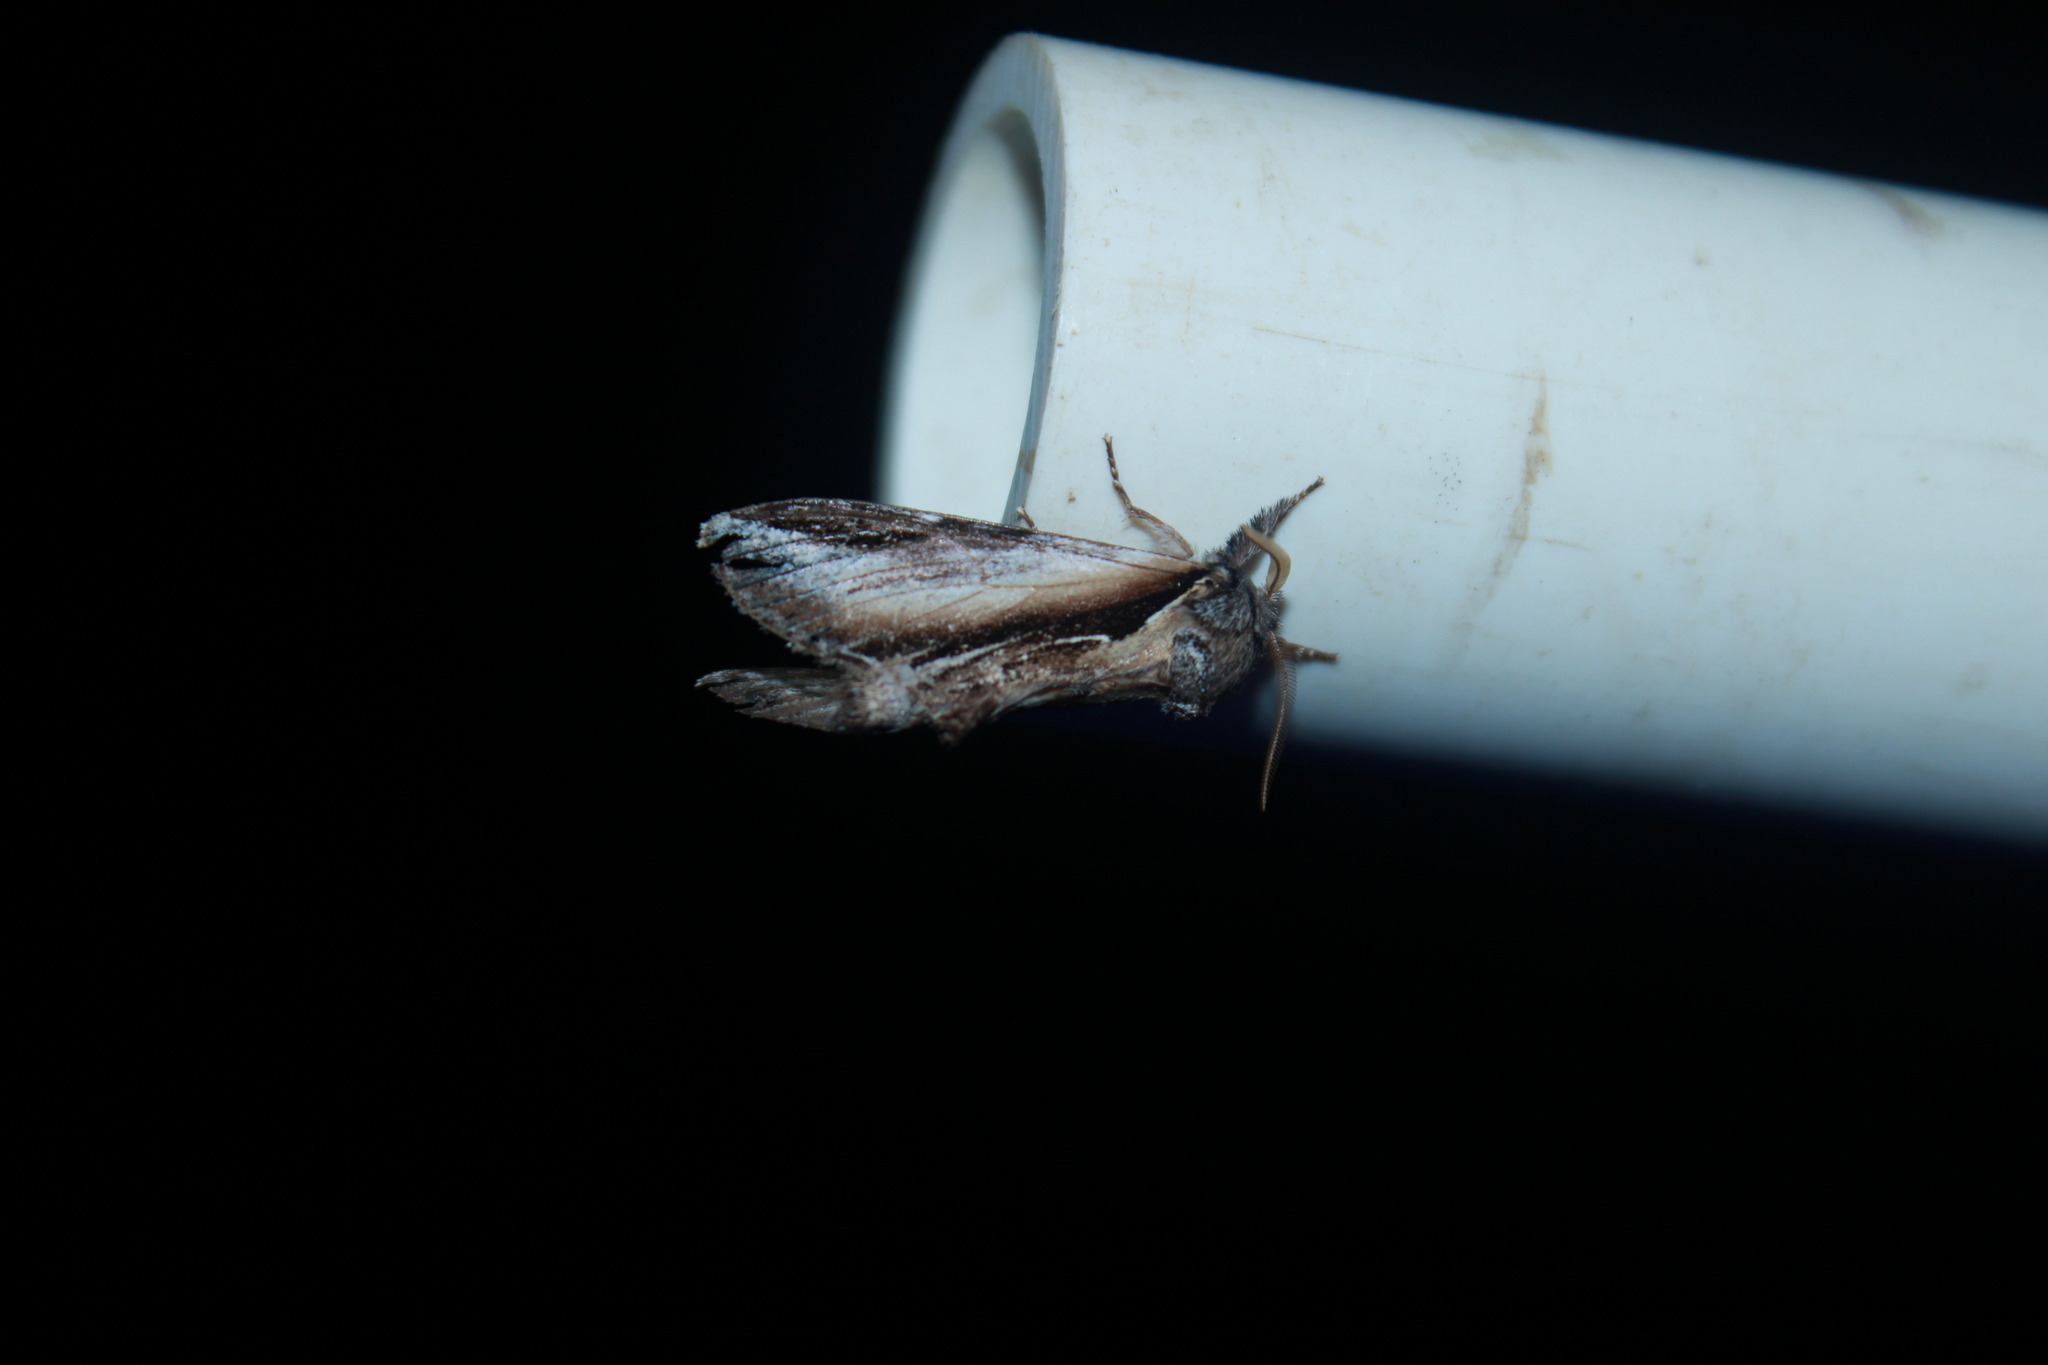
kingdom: Animalia
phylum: Arthropoda
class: Insecta
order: Lepidoptera
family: Notodontidae
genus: Pheosia
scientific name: Pheosia rimosa
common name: Black-rimmed prominent
